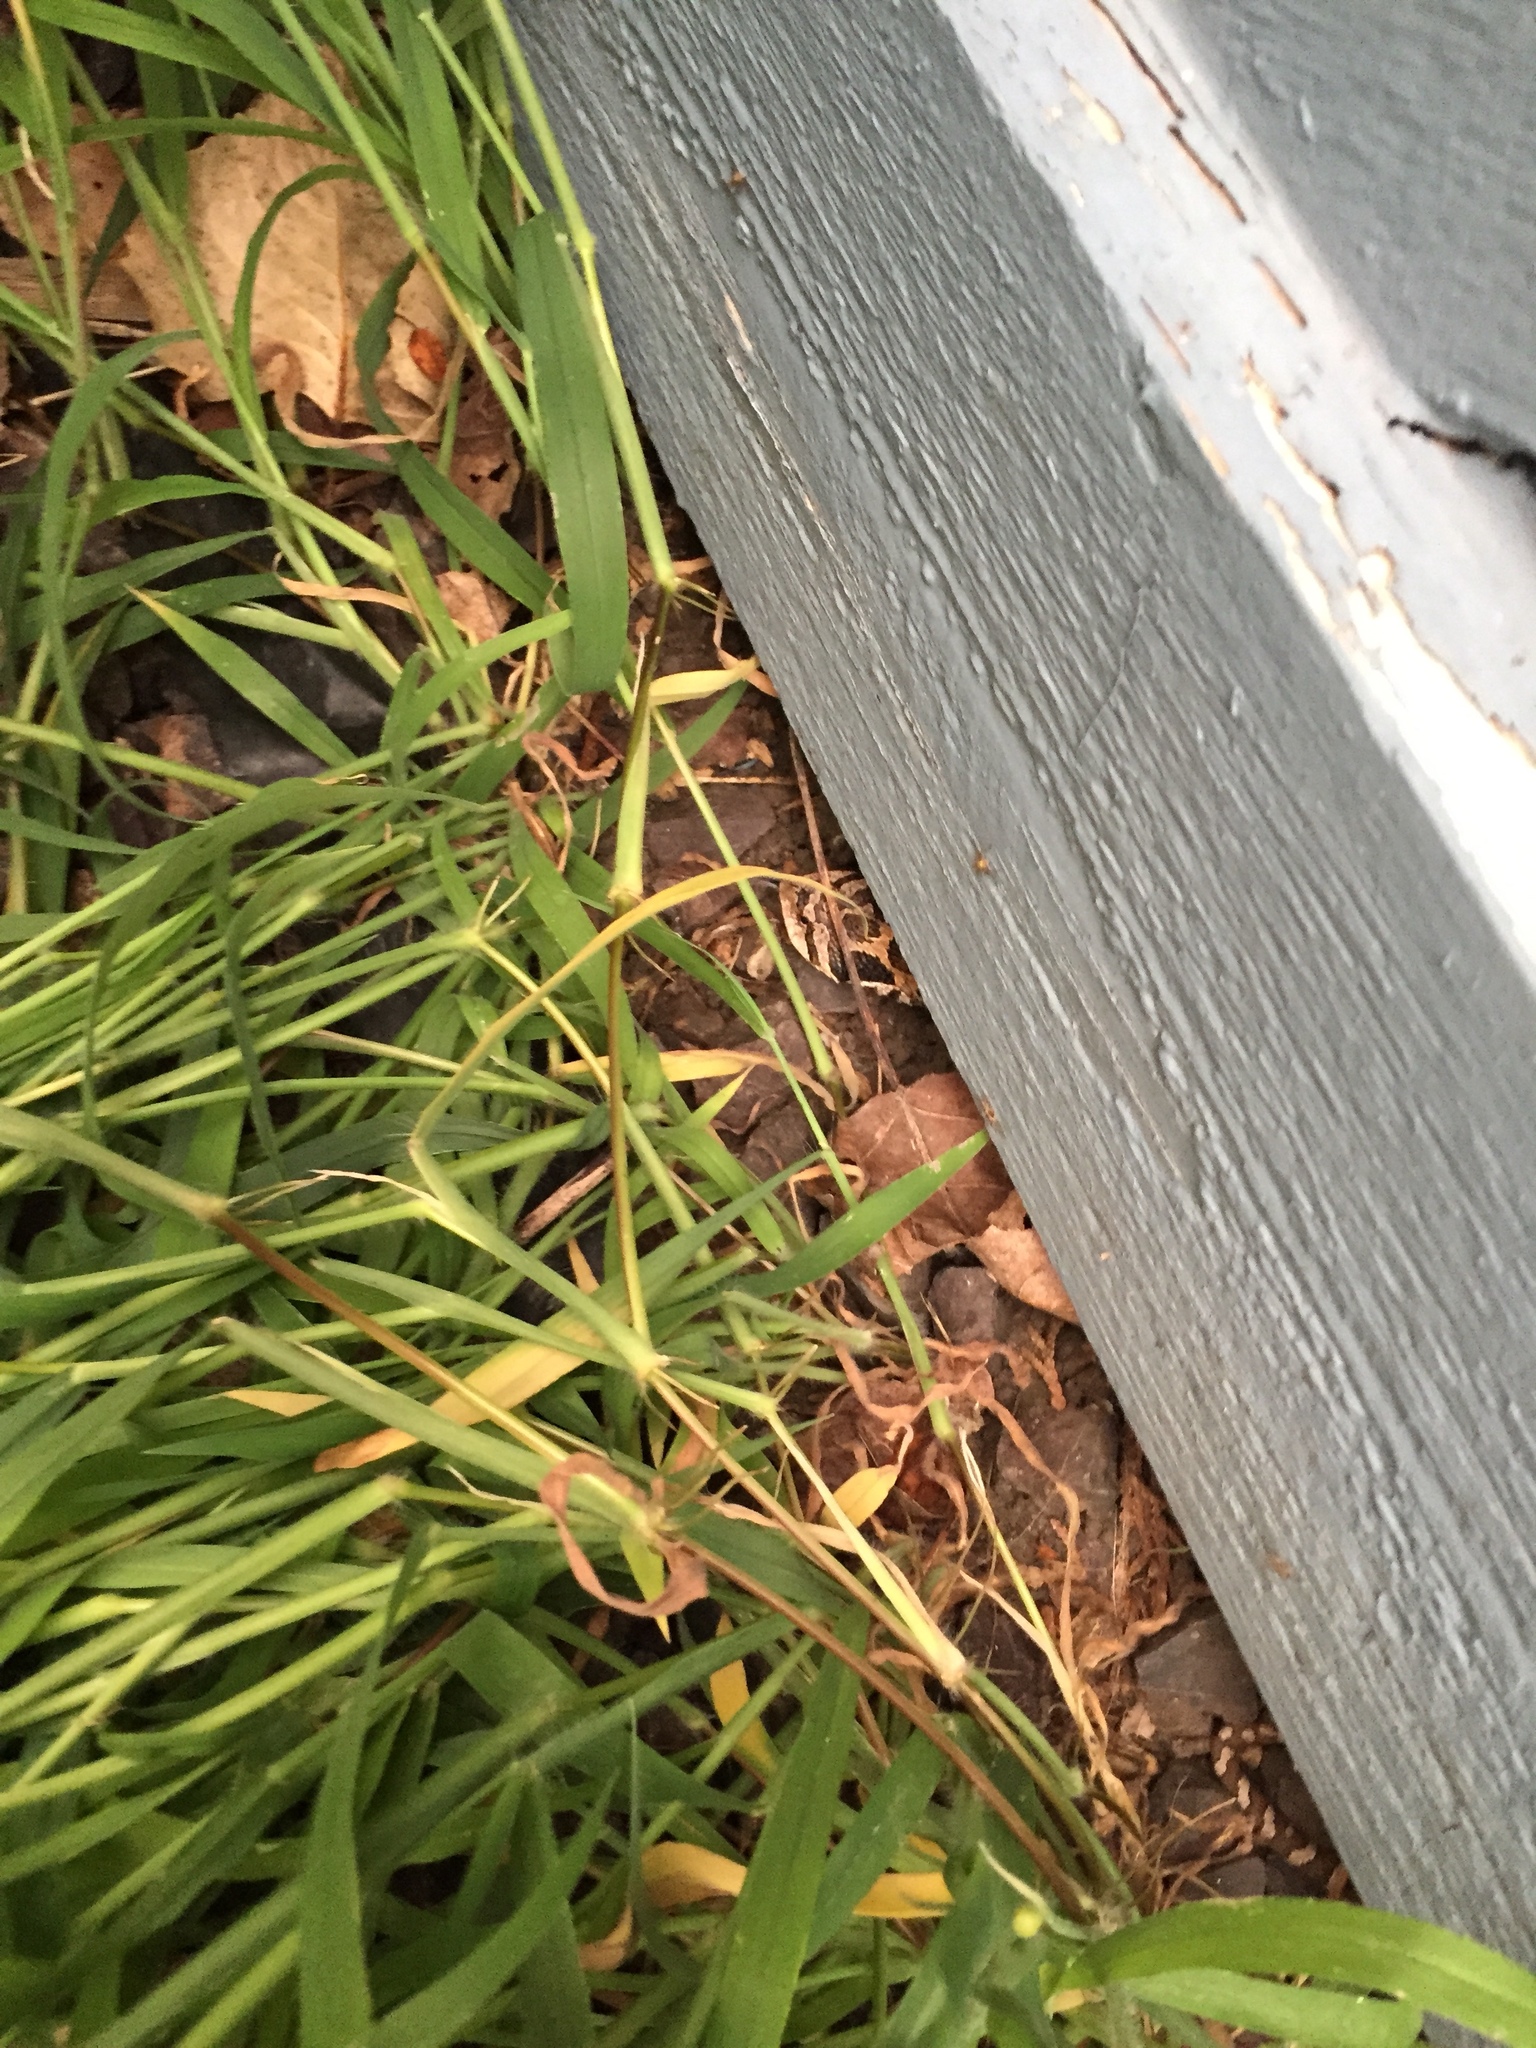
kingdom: Animalia
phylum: Chordata
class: Squamata
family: Colubridae
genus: Heterodon
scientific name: Heterodon platirhinos
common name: Eastern hognose snake
